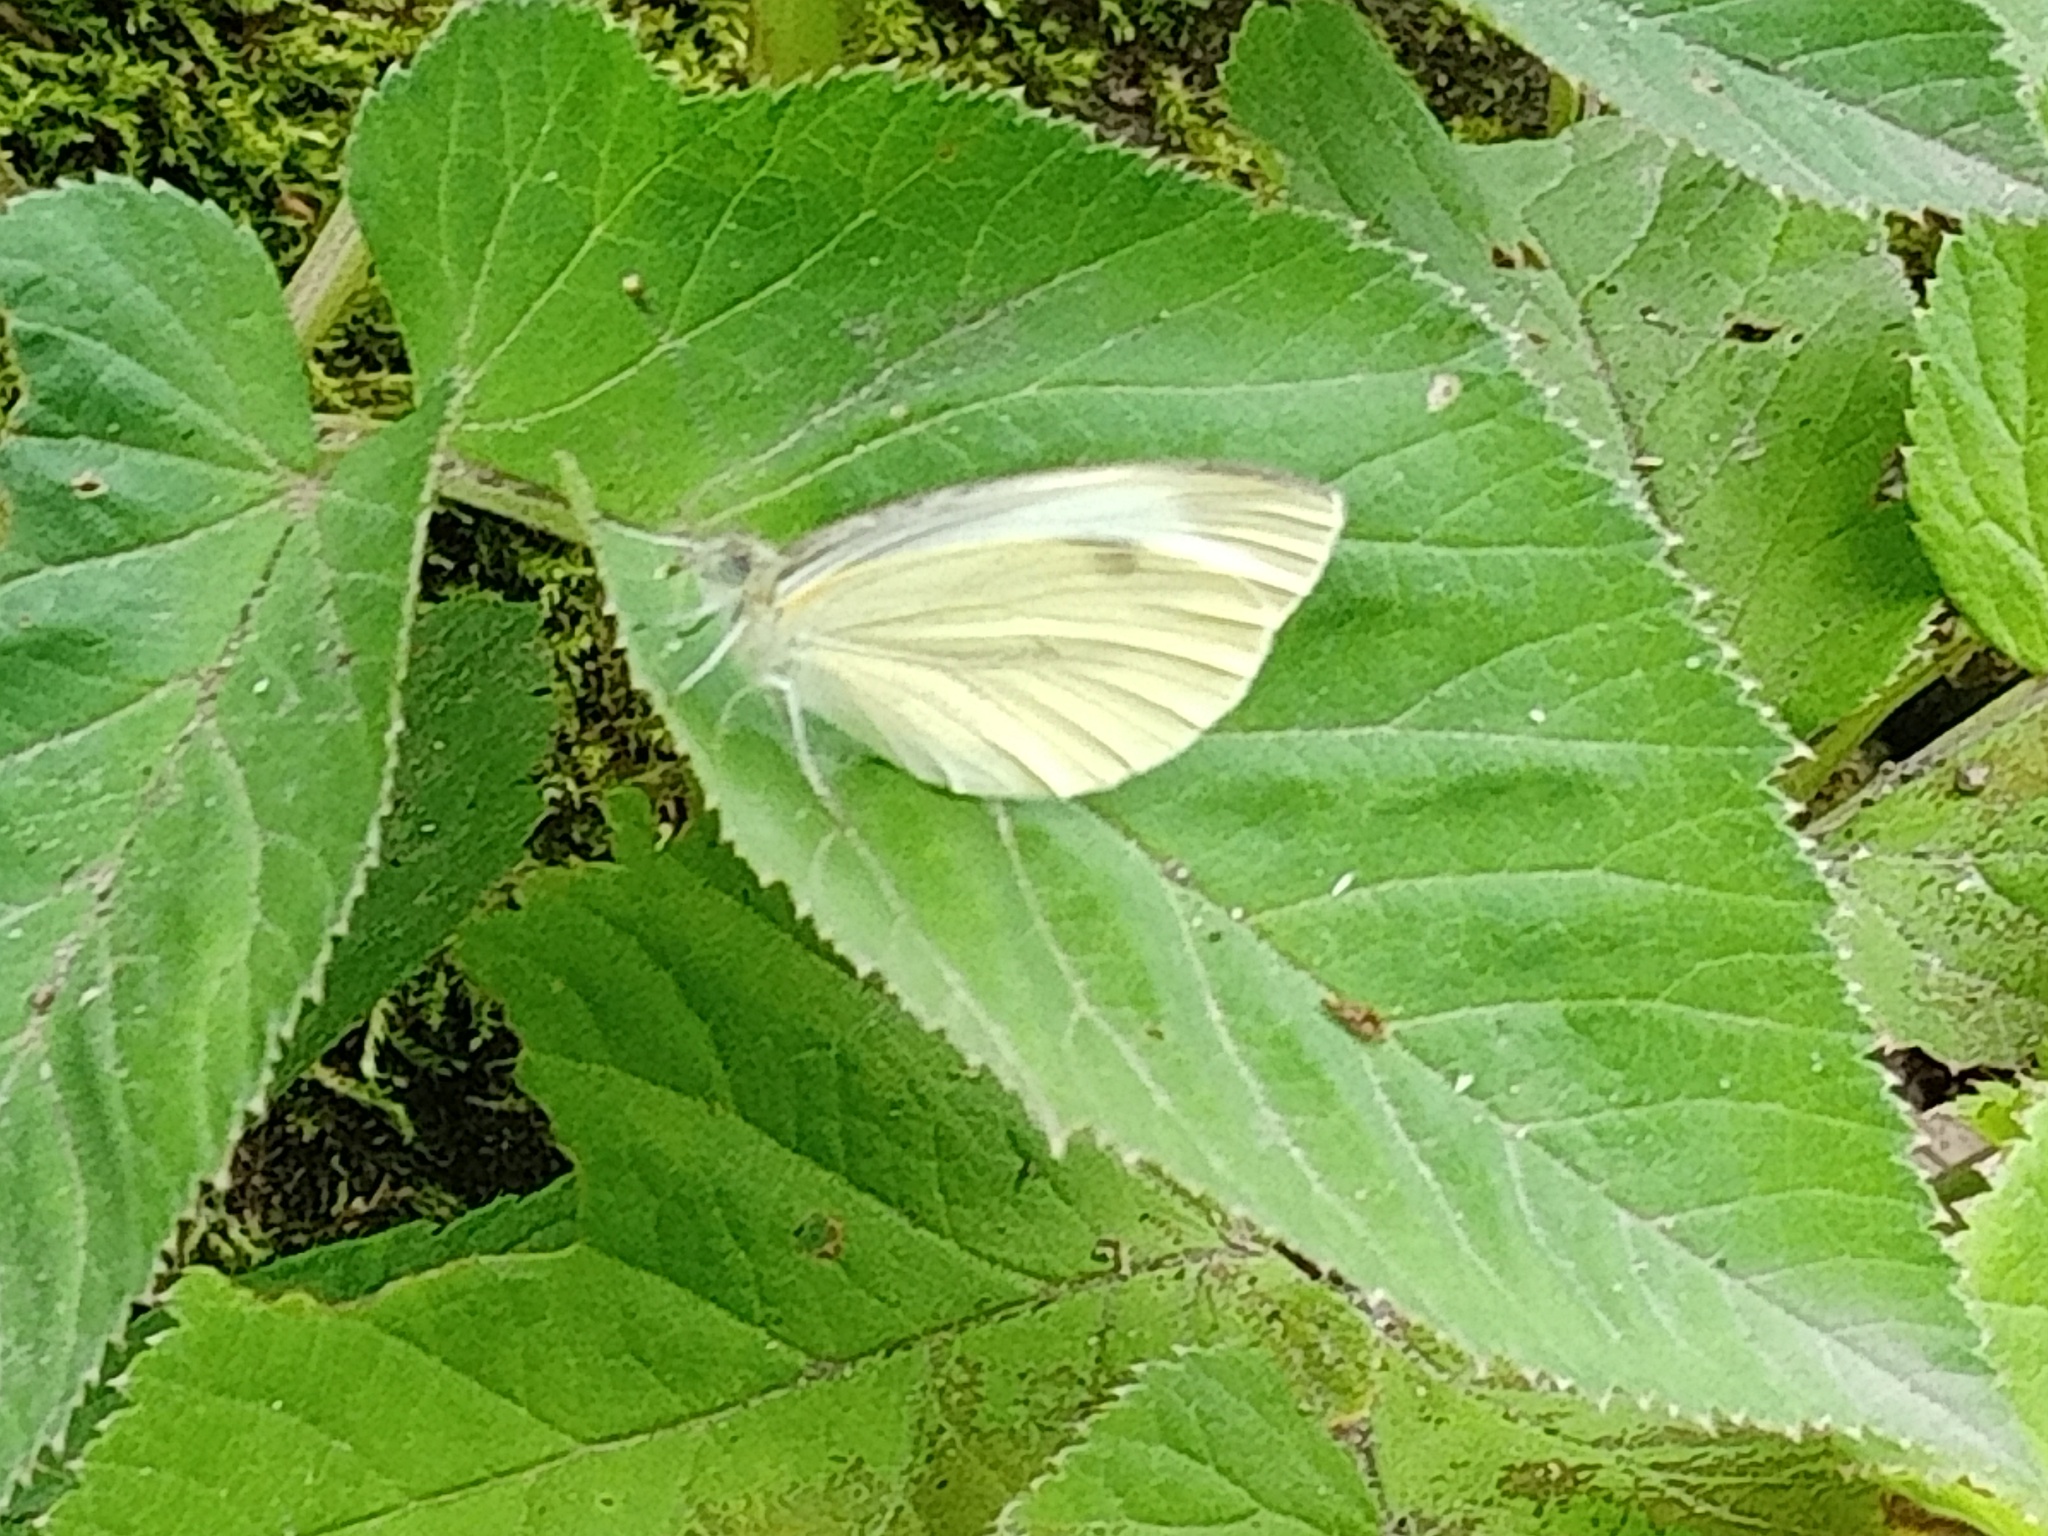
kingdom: Animalia
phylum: Arthropoda
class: Insecta
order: Lepidoptera
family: Pieridae
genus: Pieris
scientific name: Pieris napi
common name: Green-veined white
